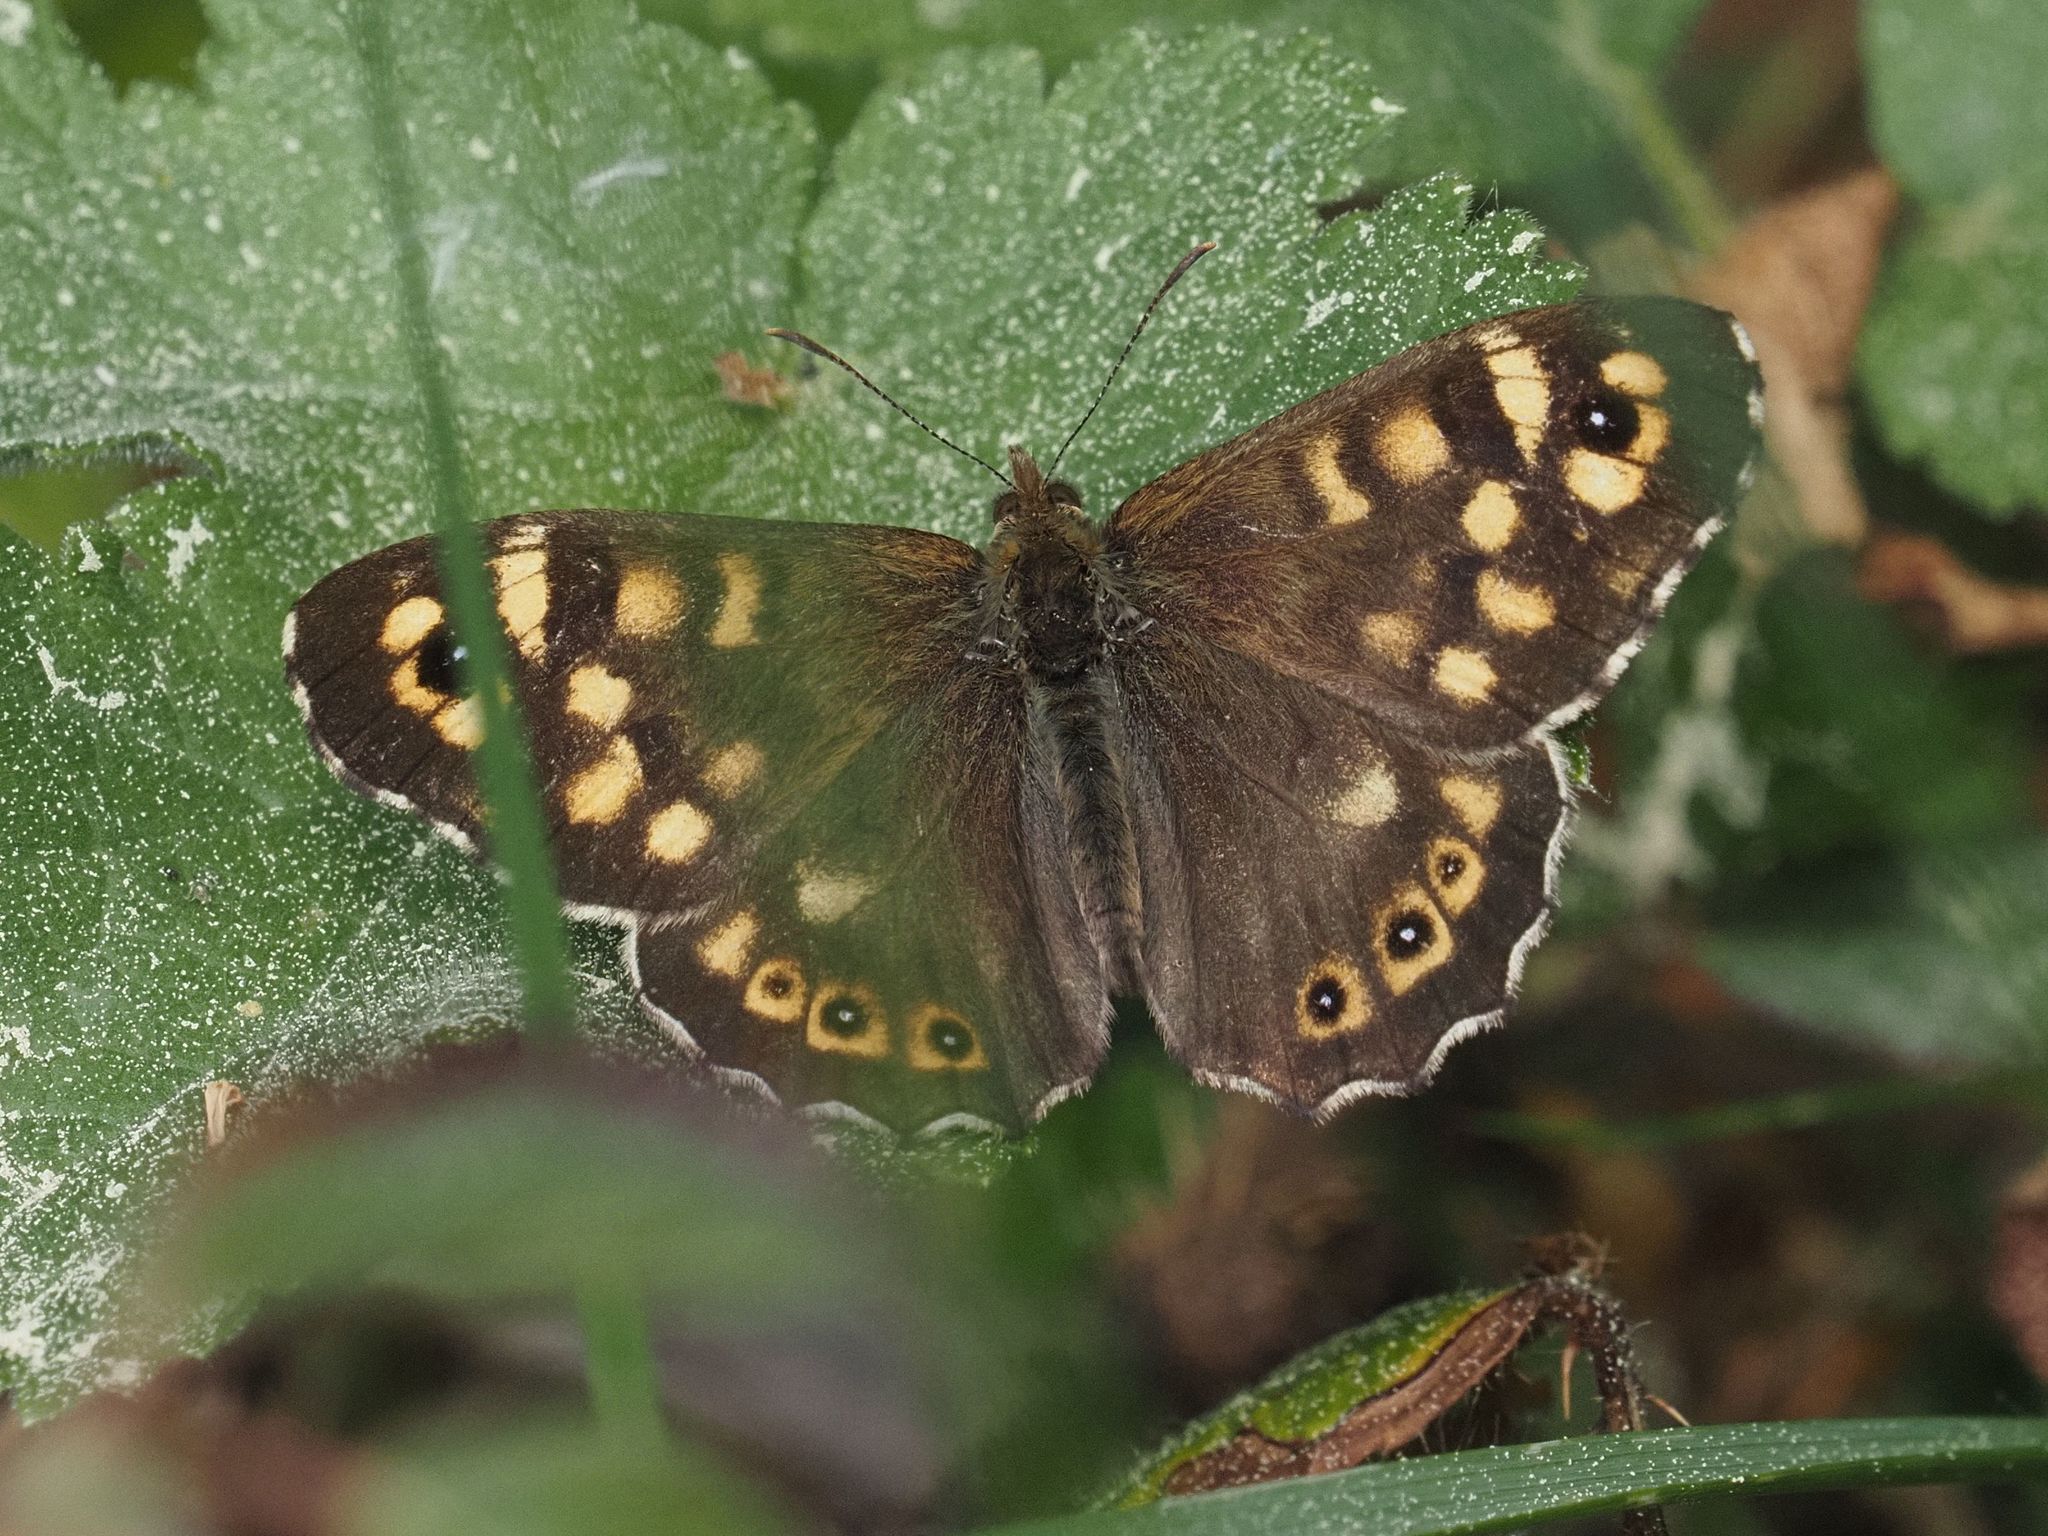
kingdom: Animalia
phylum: Arthropoda
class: Insecta
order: Lepidoptera
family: Nymphalidae
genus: Pararge
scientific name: Pararge aegeria
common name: Speckled wood
